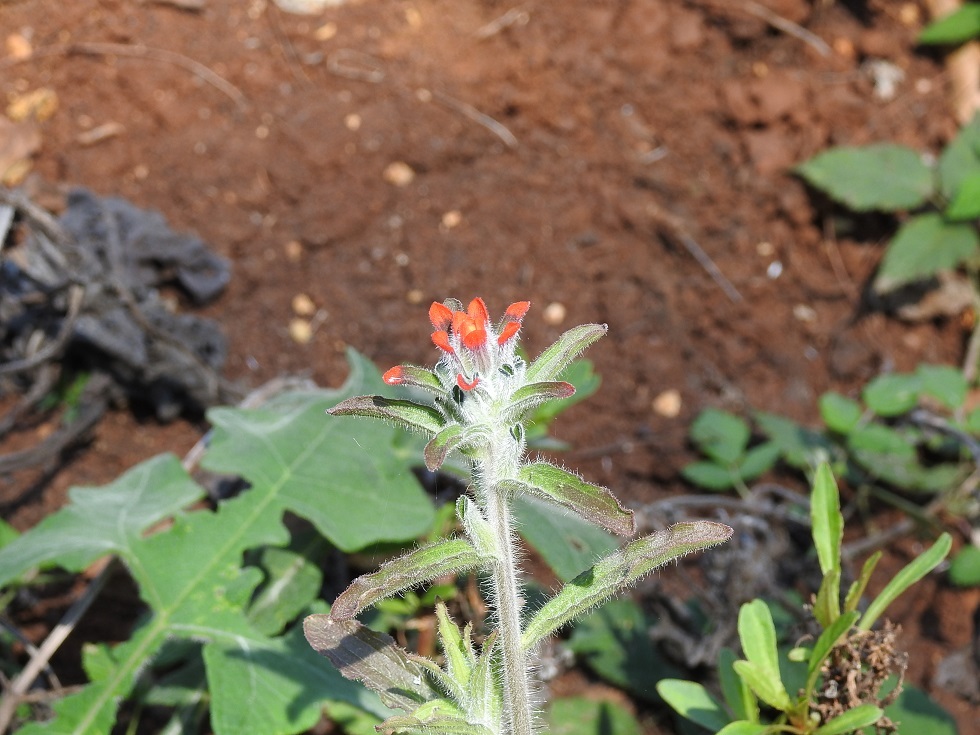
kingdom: Plantae
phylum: Tracheophyta
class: Magnoliopsida
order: Lamiales
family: Orobanchaceae
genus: Castilleja
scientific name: Castilleja arvensis
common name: Indian paintbrush
